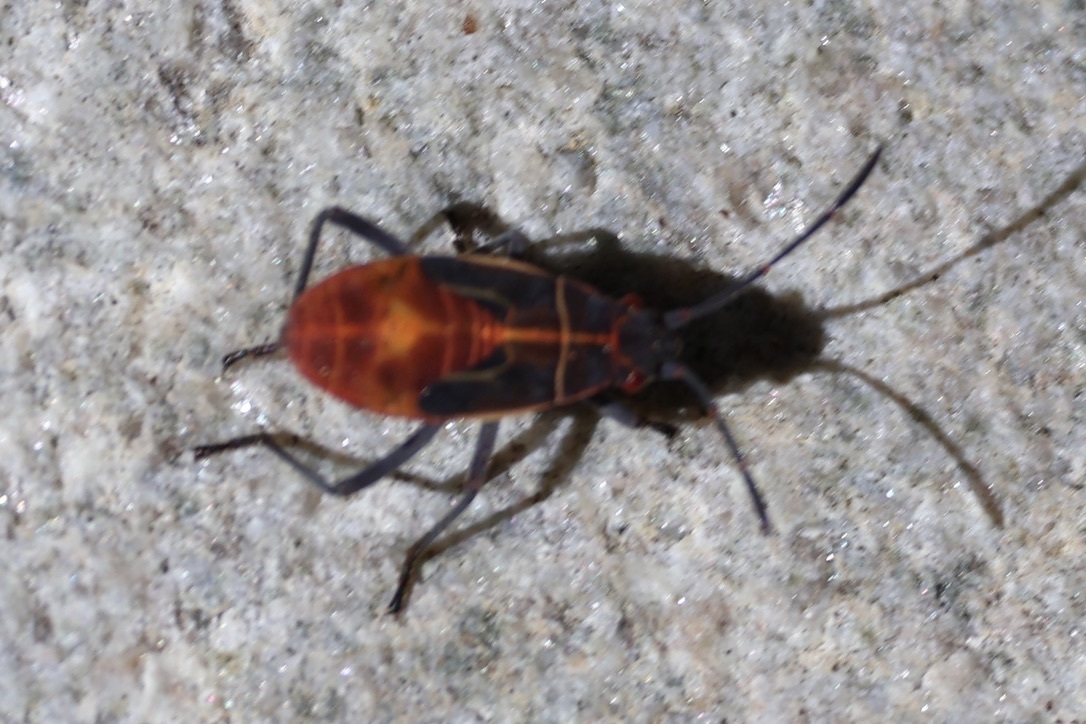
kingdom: Animalia
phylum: Arthropoda
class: Insecta
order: Hemiptera
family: Rhopalidae
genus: Boisea
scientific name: Boisea rubrolineata
